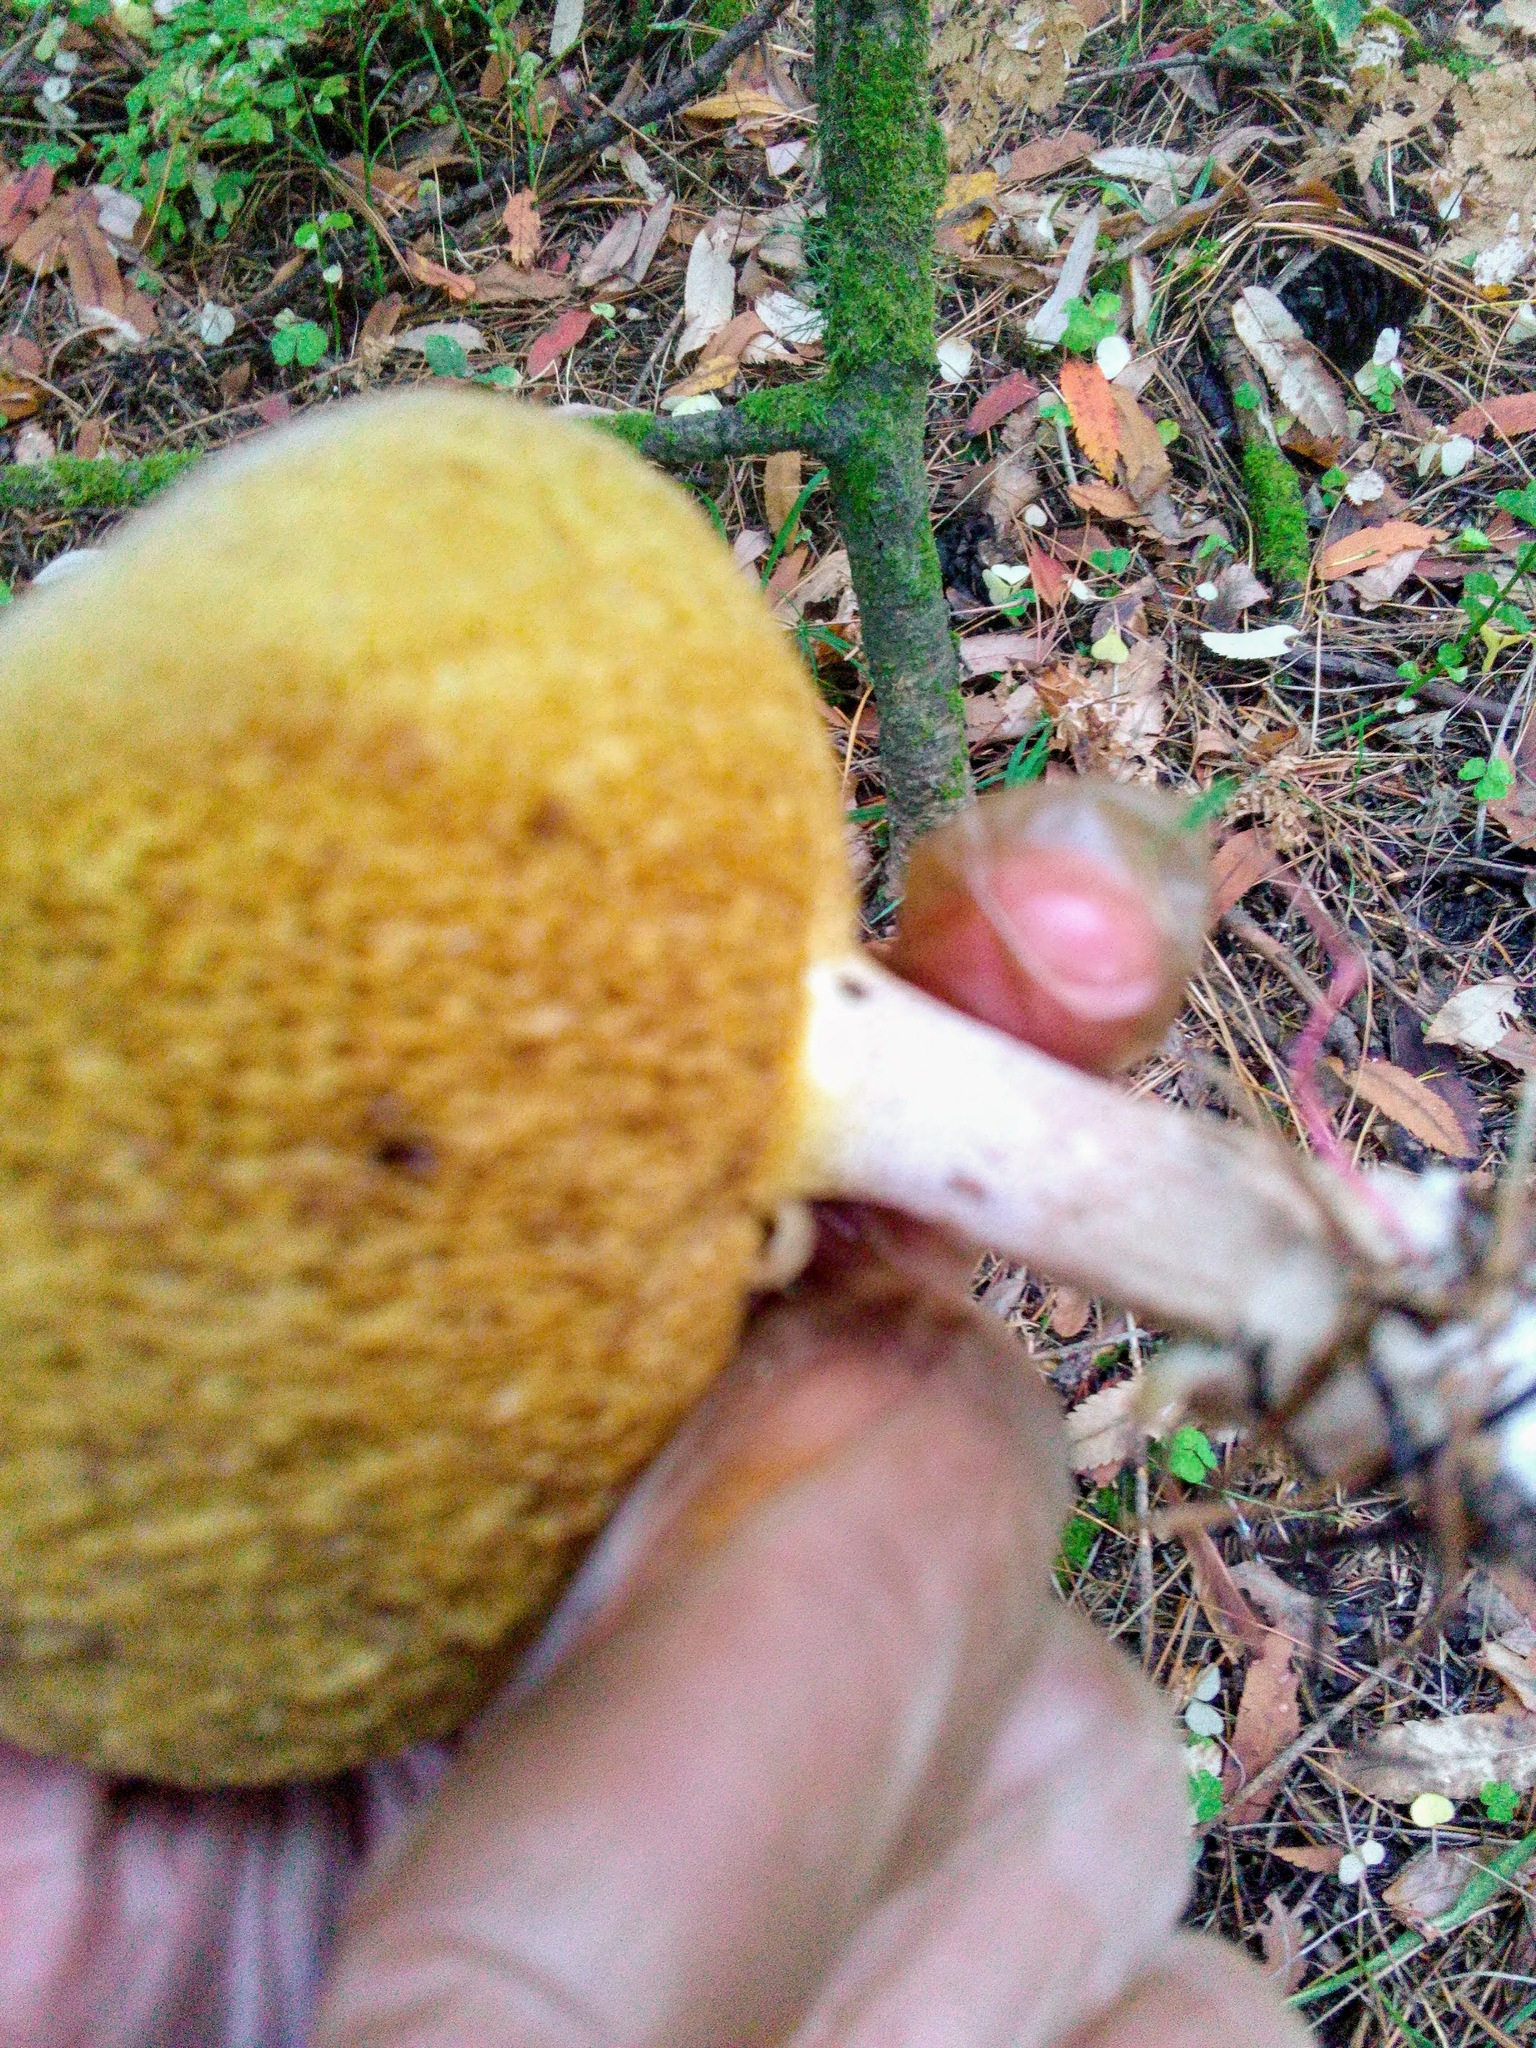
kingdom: Fungi
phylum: Basidiomycota
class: Agaricomycetes
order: Boletales
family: Suillaceae
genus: Suillus
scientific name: Suillus placidus
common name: Slippery white bolete
